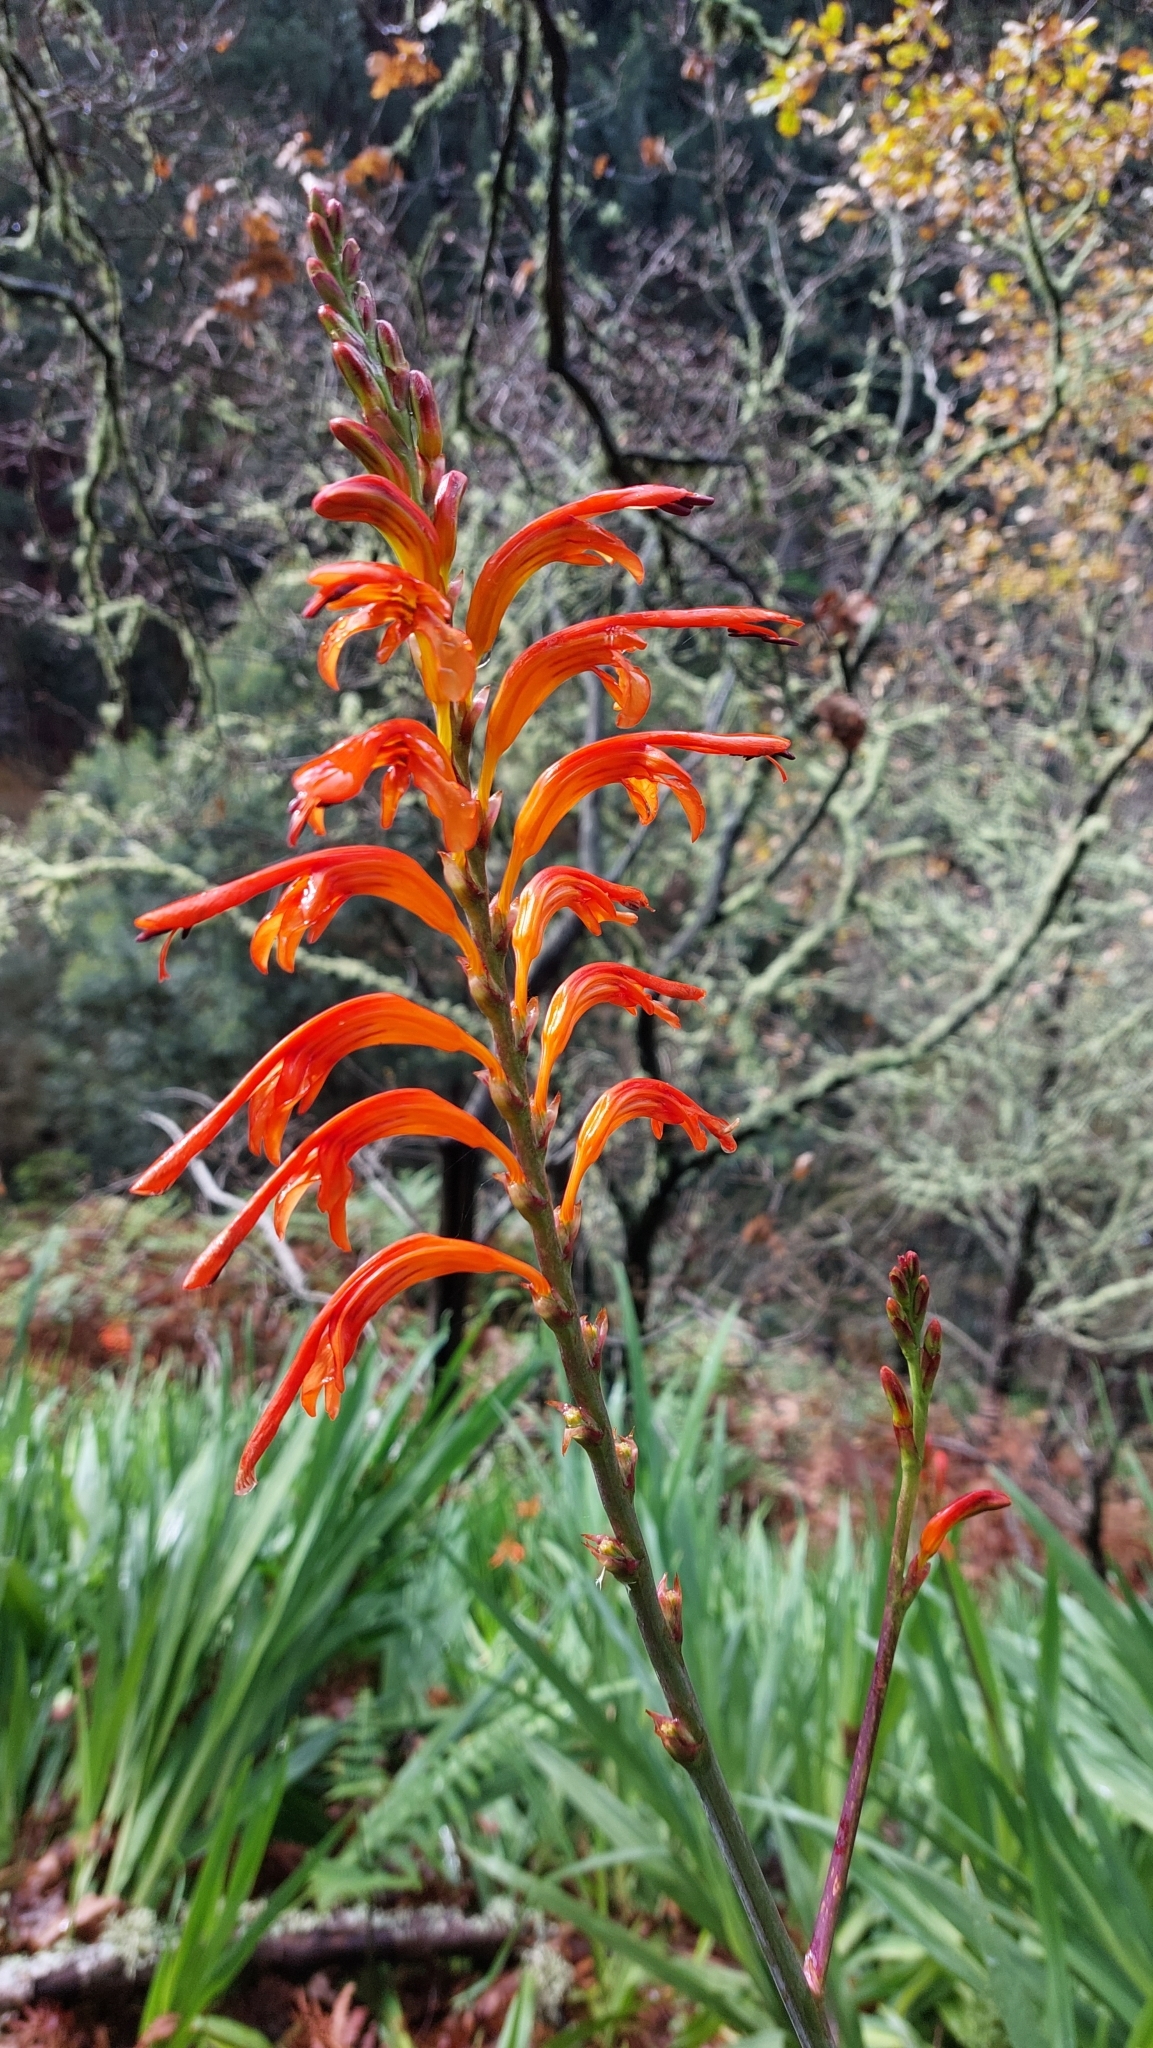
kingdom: Plantae
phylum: Tracheophyta
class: Liliopsida
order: Asparagales
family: Iridaceae
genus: Chasmanthe
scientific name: Chasmanthe floribunda
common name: African cornflag
